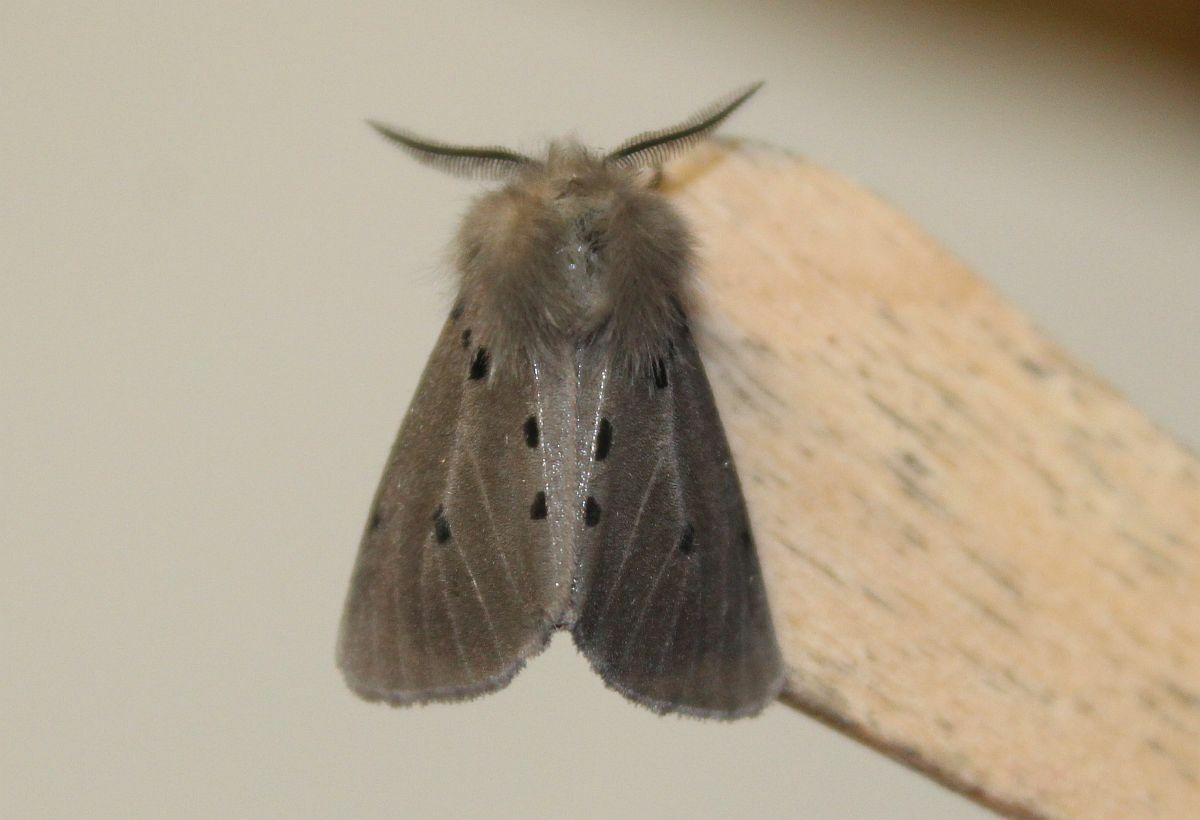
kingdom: Animalia
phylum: Arthropoda
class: Insecta
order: Lepidoptera
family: Erebidae
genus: Diaphora
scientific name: Diaphora mendica
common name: Muslin moth
